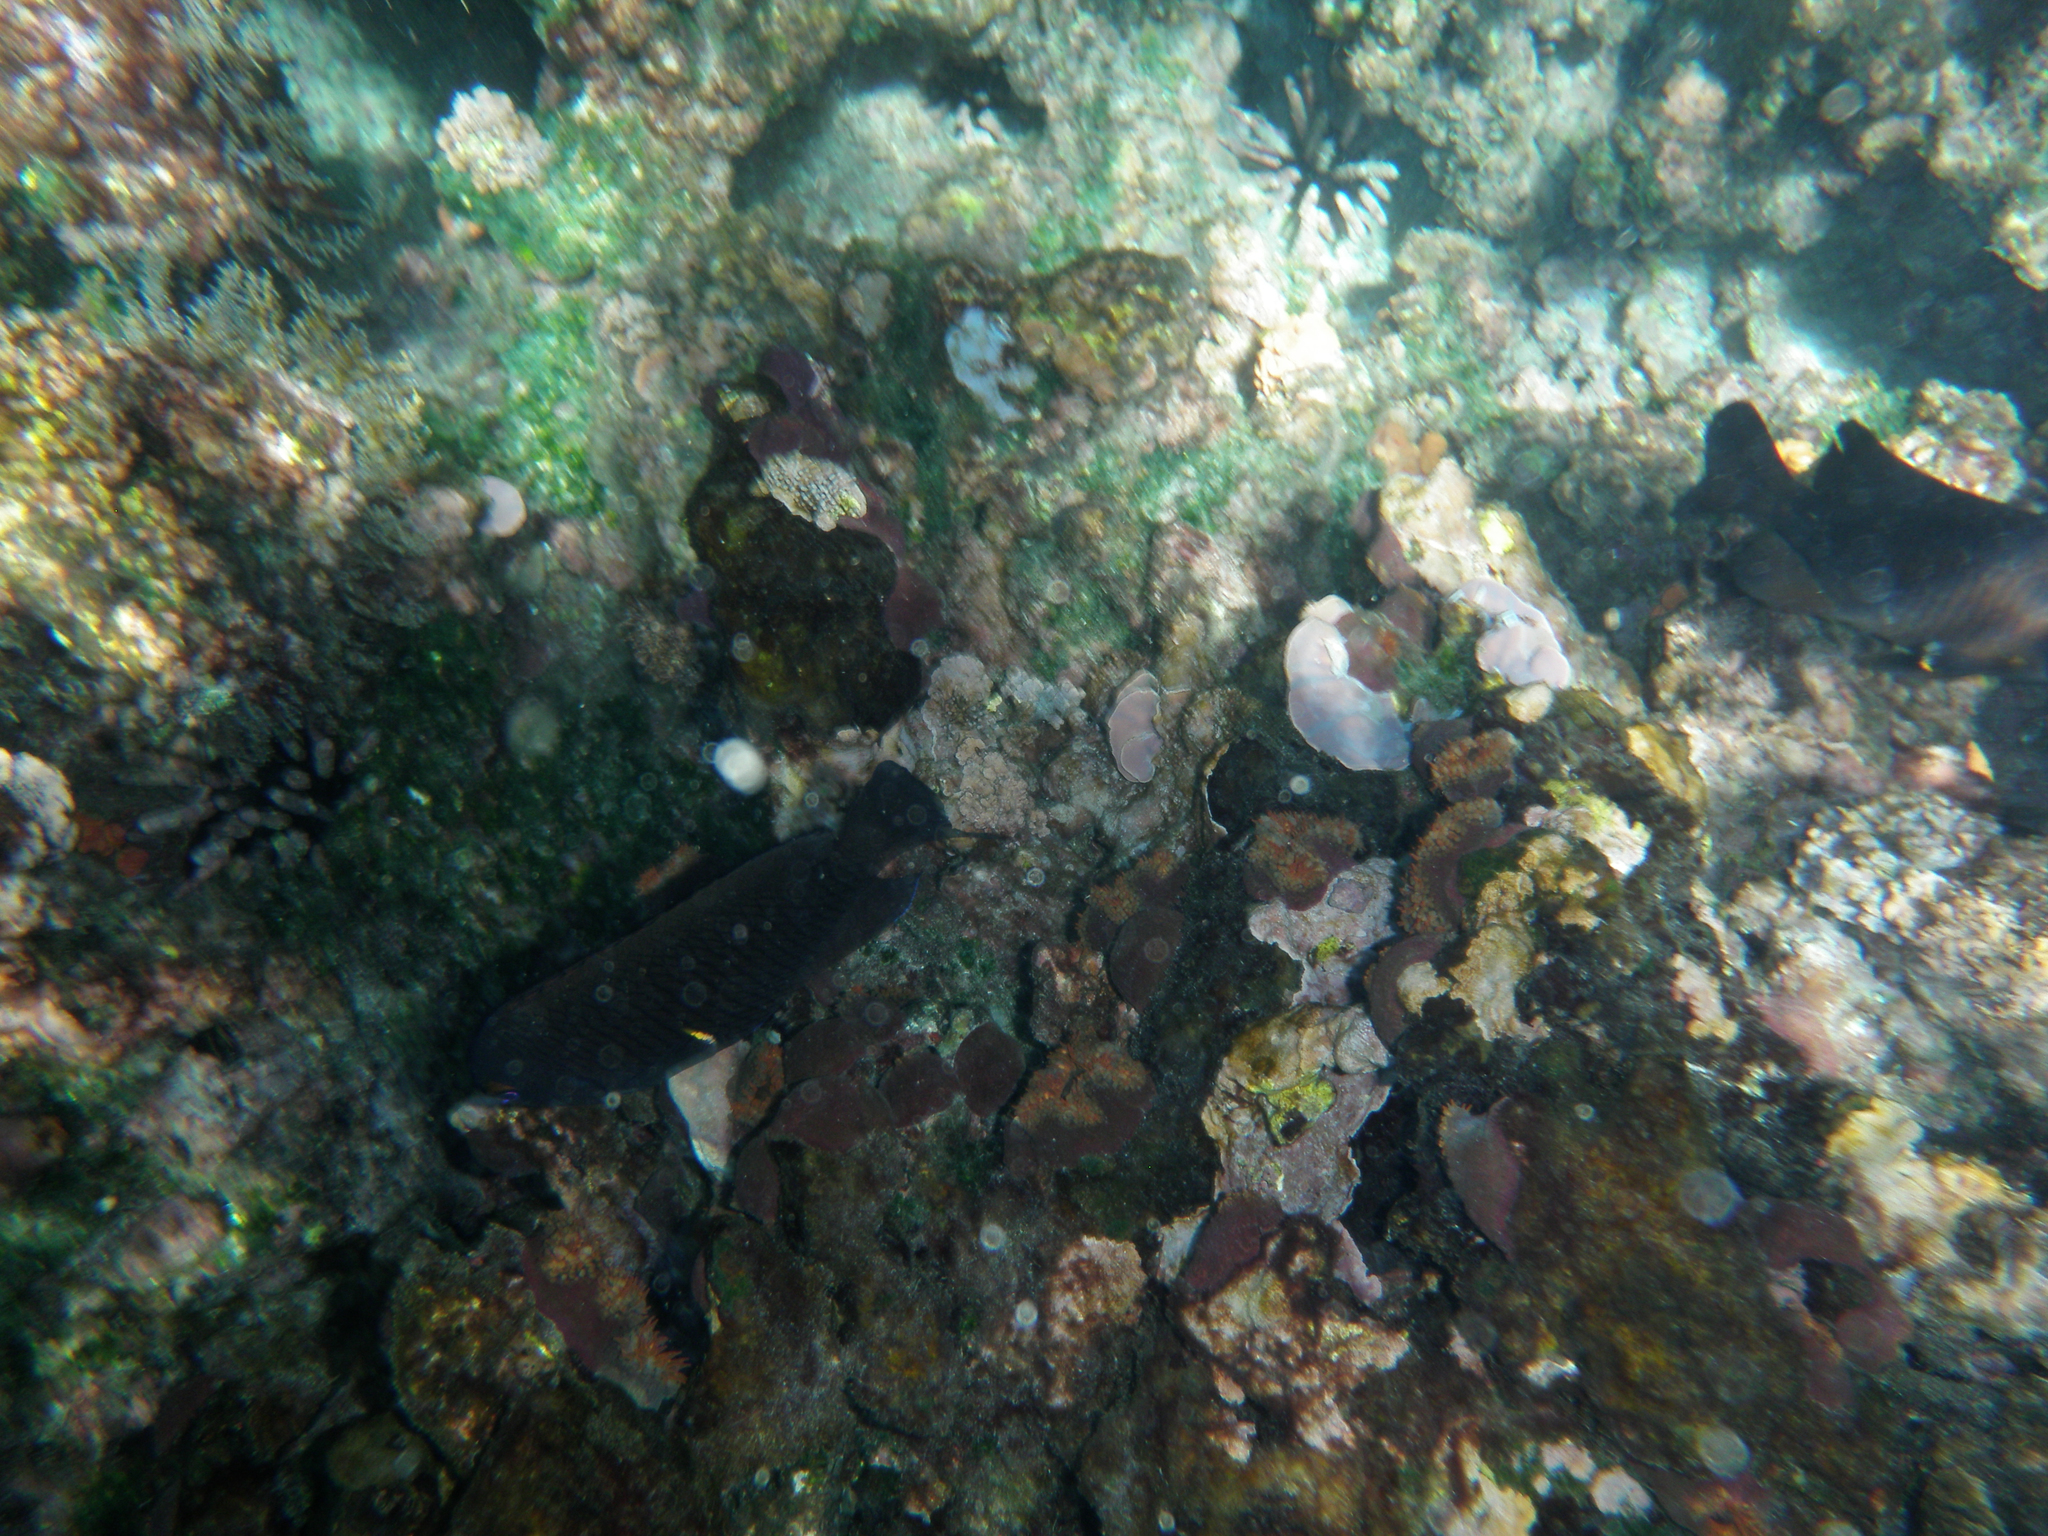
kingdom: Animalia
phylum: Chordata
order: Perciformes
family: Pomacentridae
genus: Stegastes
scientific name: Stegastes beebei
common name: Galapagos ringtail damselfish
